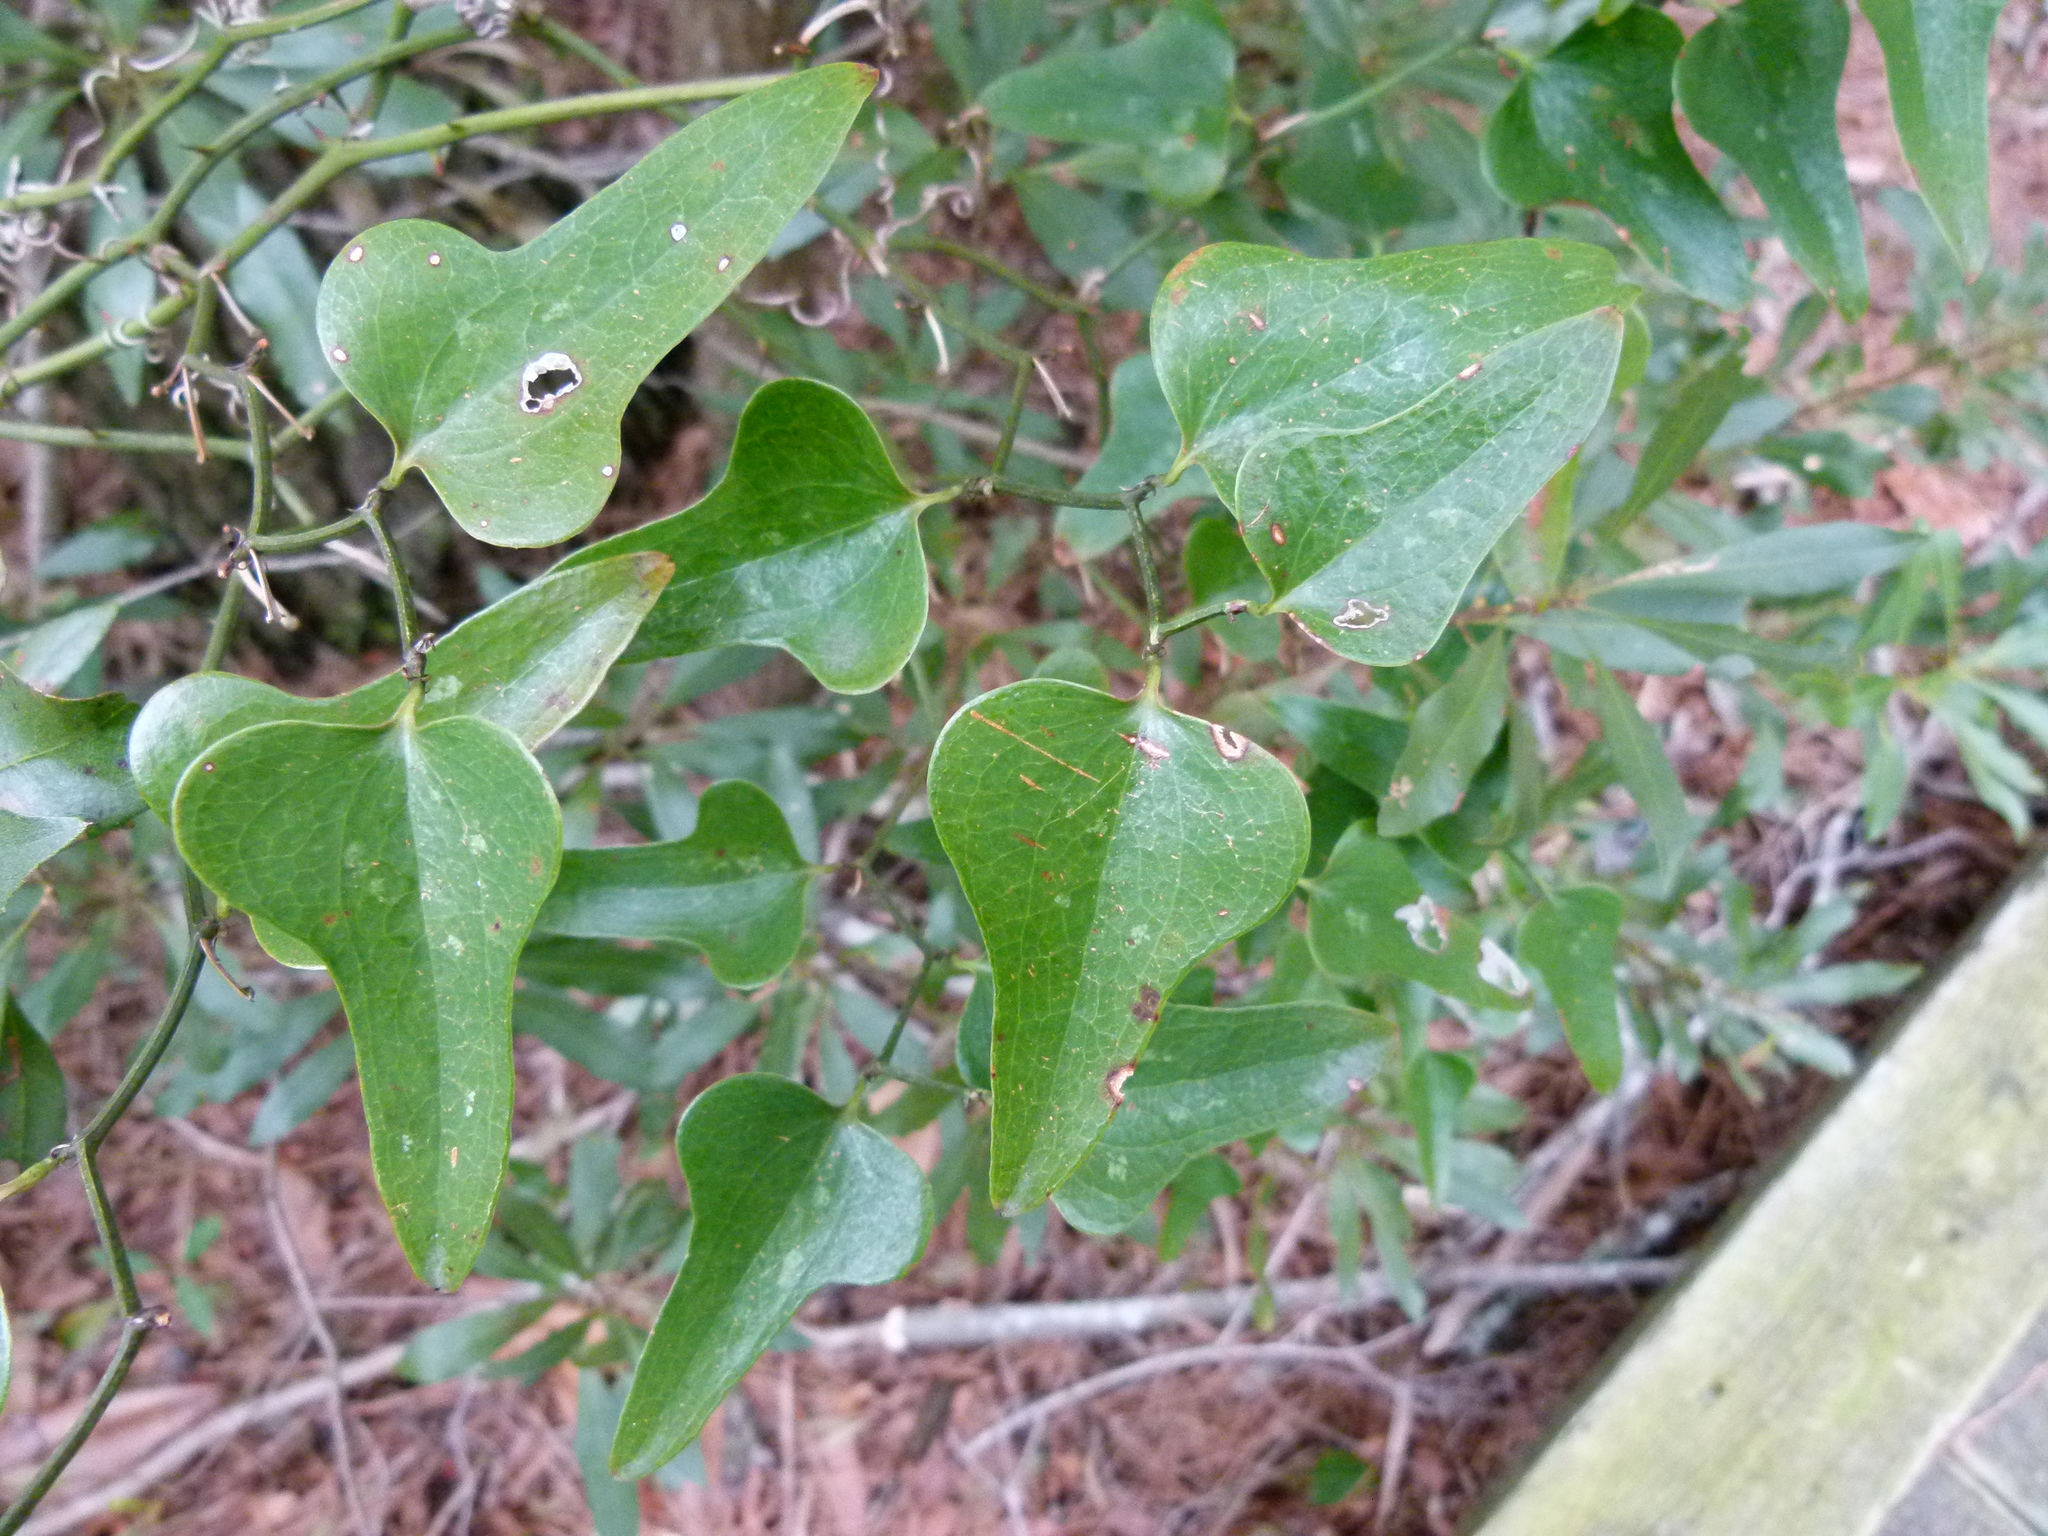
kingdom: Plantae
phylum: Tracheophyta
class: Liliopsida
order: Liliales
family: Smilacaceae
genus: Smilax
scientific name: Smilax bona-nox
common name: Catbrier
